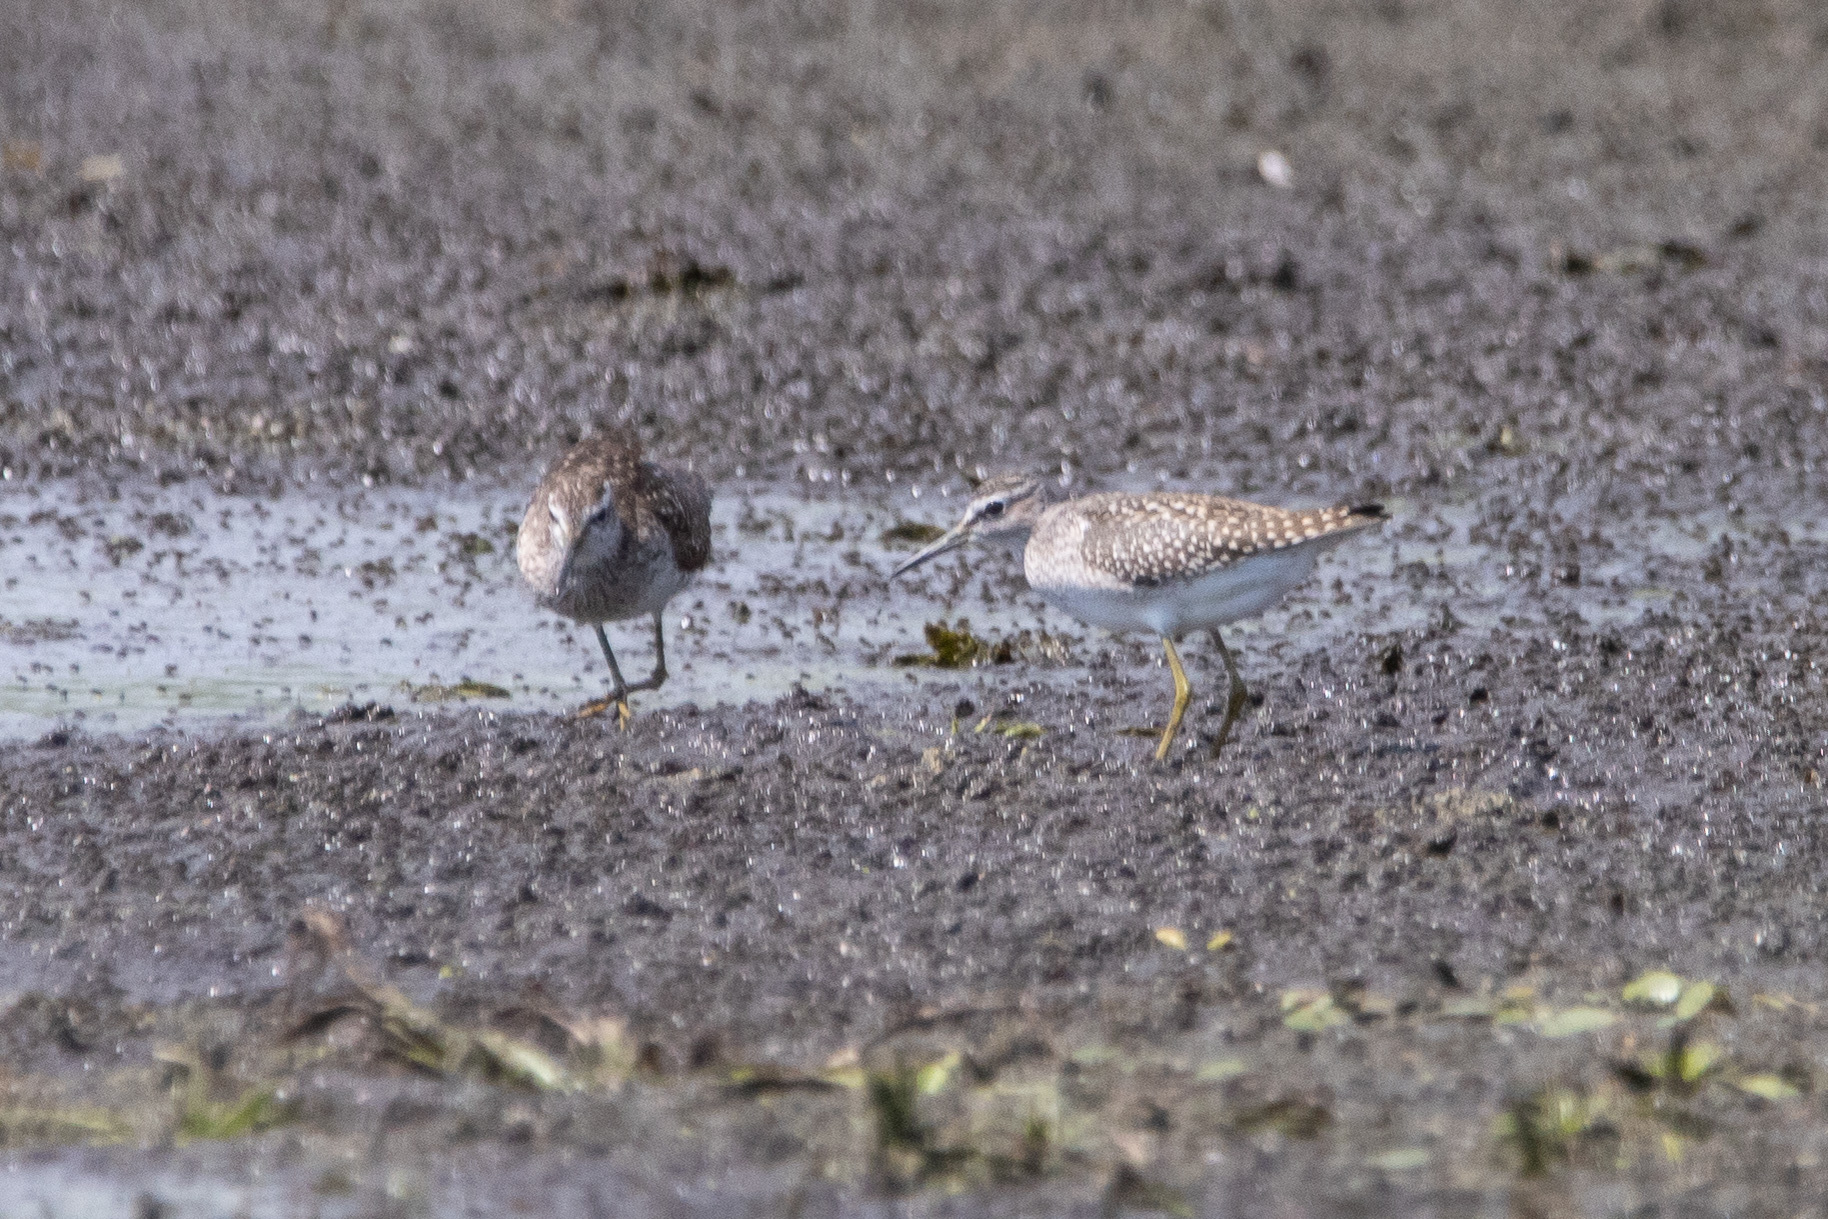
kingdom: Animalia
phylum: Chordata
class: Aves
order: Charadriiformes
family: Scolopacidae
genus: Tringa
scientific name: Tringa glareola
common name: Wood sandpiper
